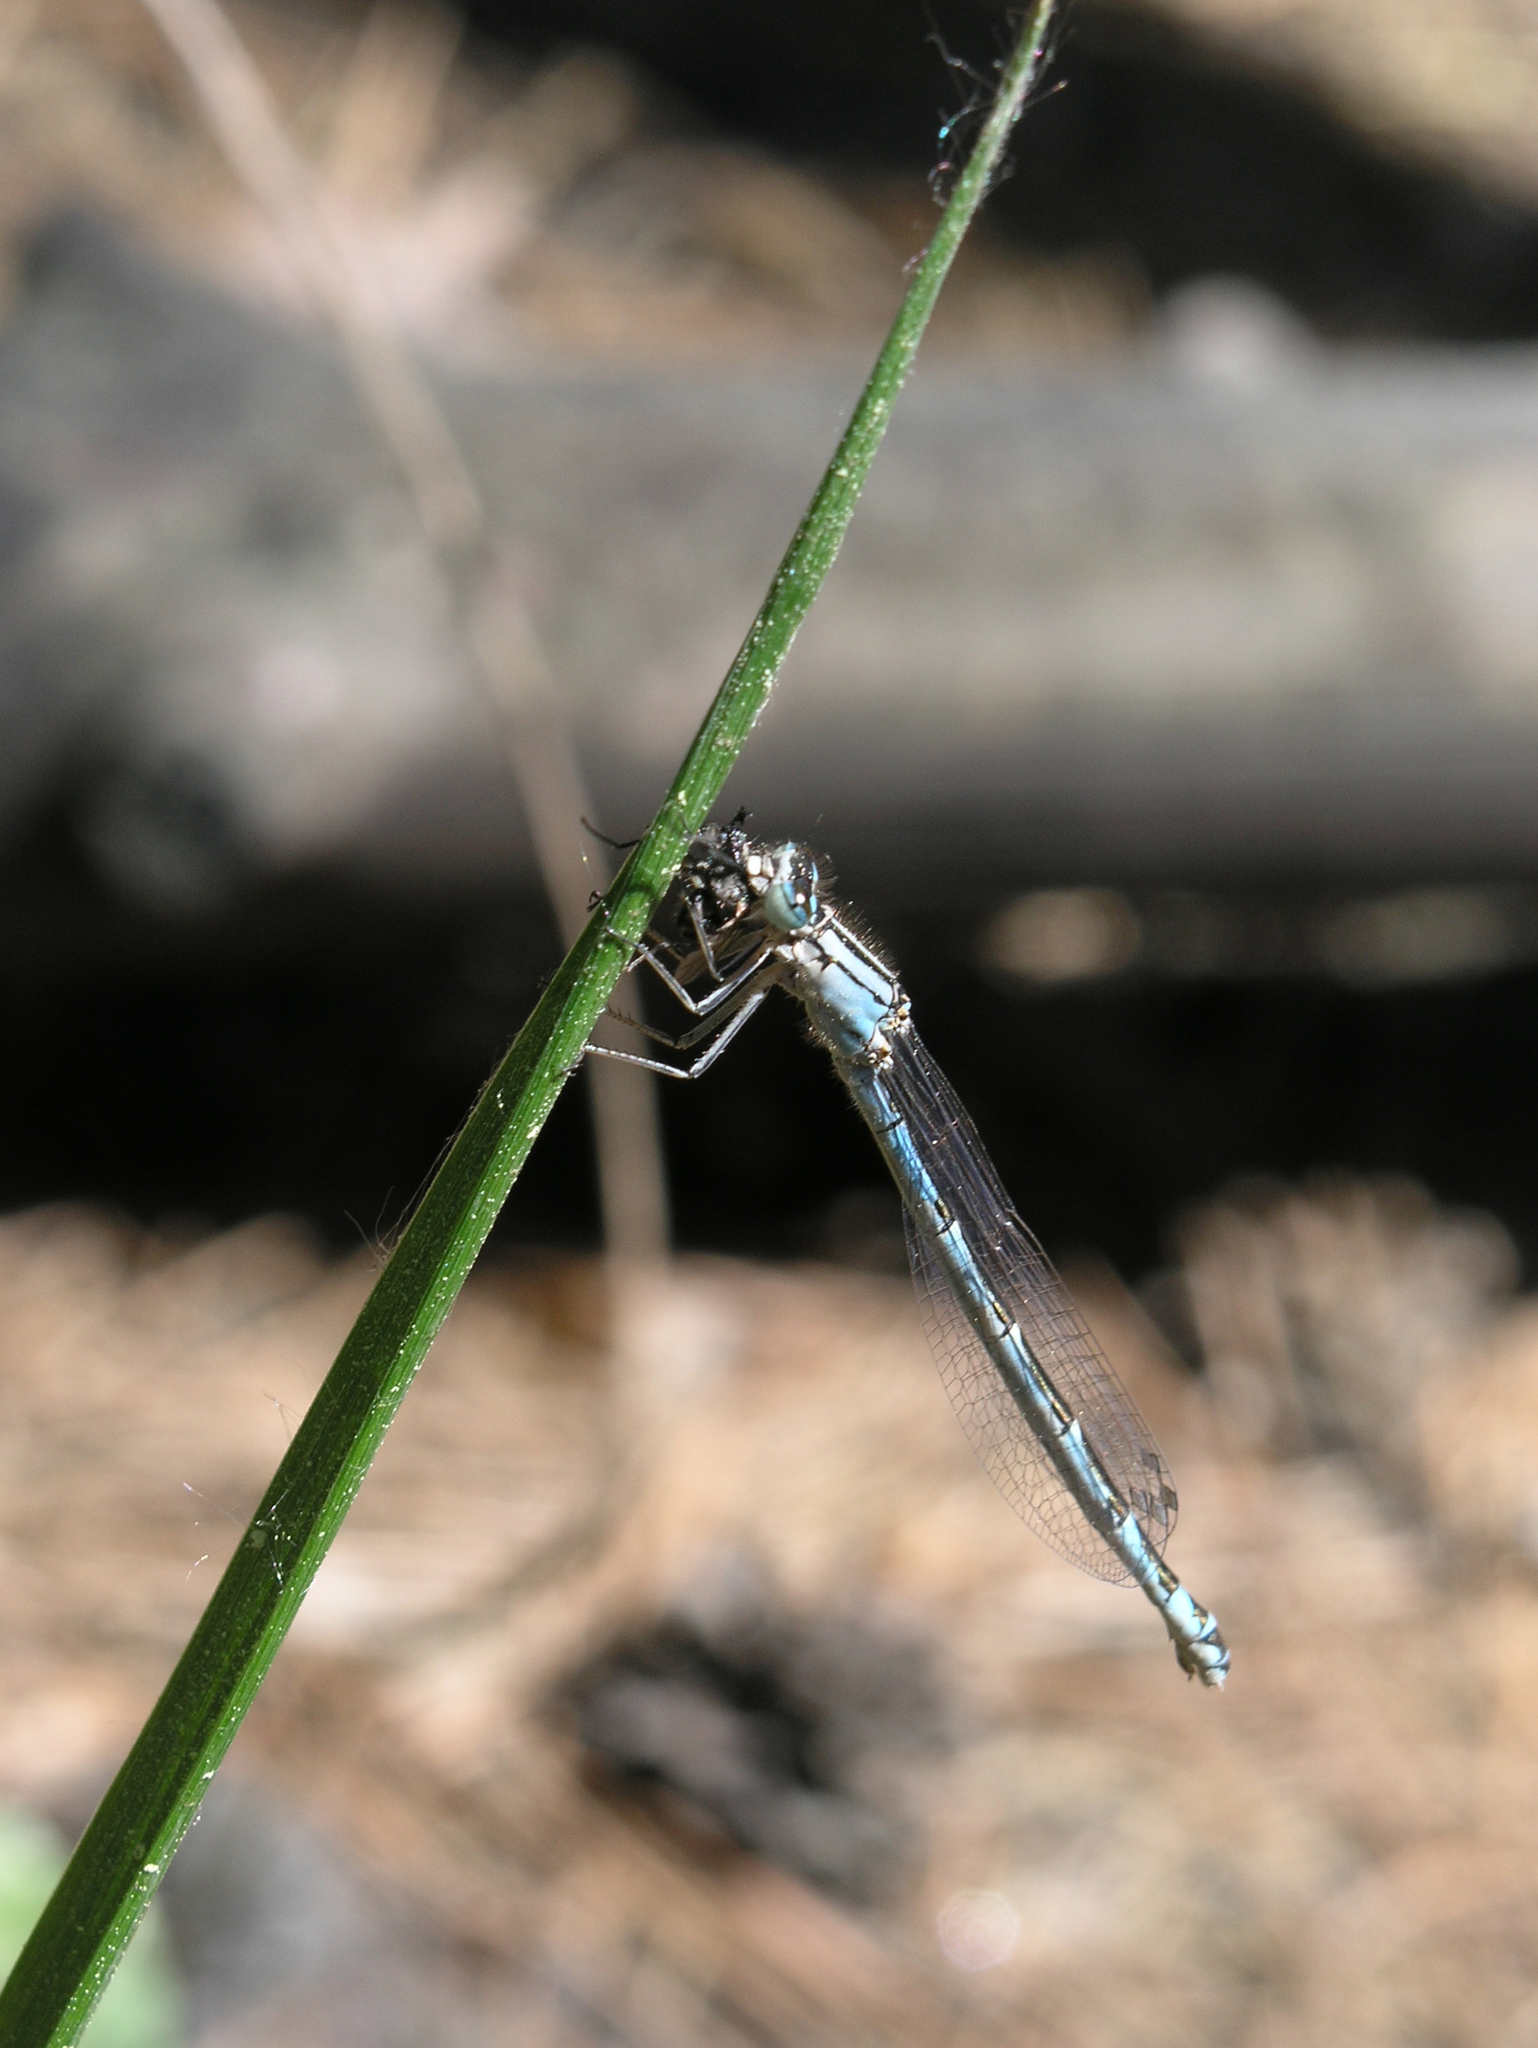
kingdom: Animalia
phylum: Arthropoda
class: Insecta
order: Odonata
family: Coenagrionidae
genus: Enallagma
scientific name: Enallagma cyathigerum
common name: Common blue damselfly
